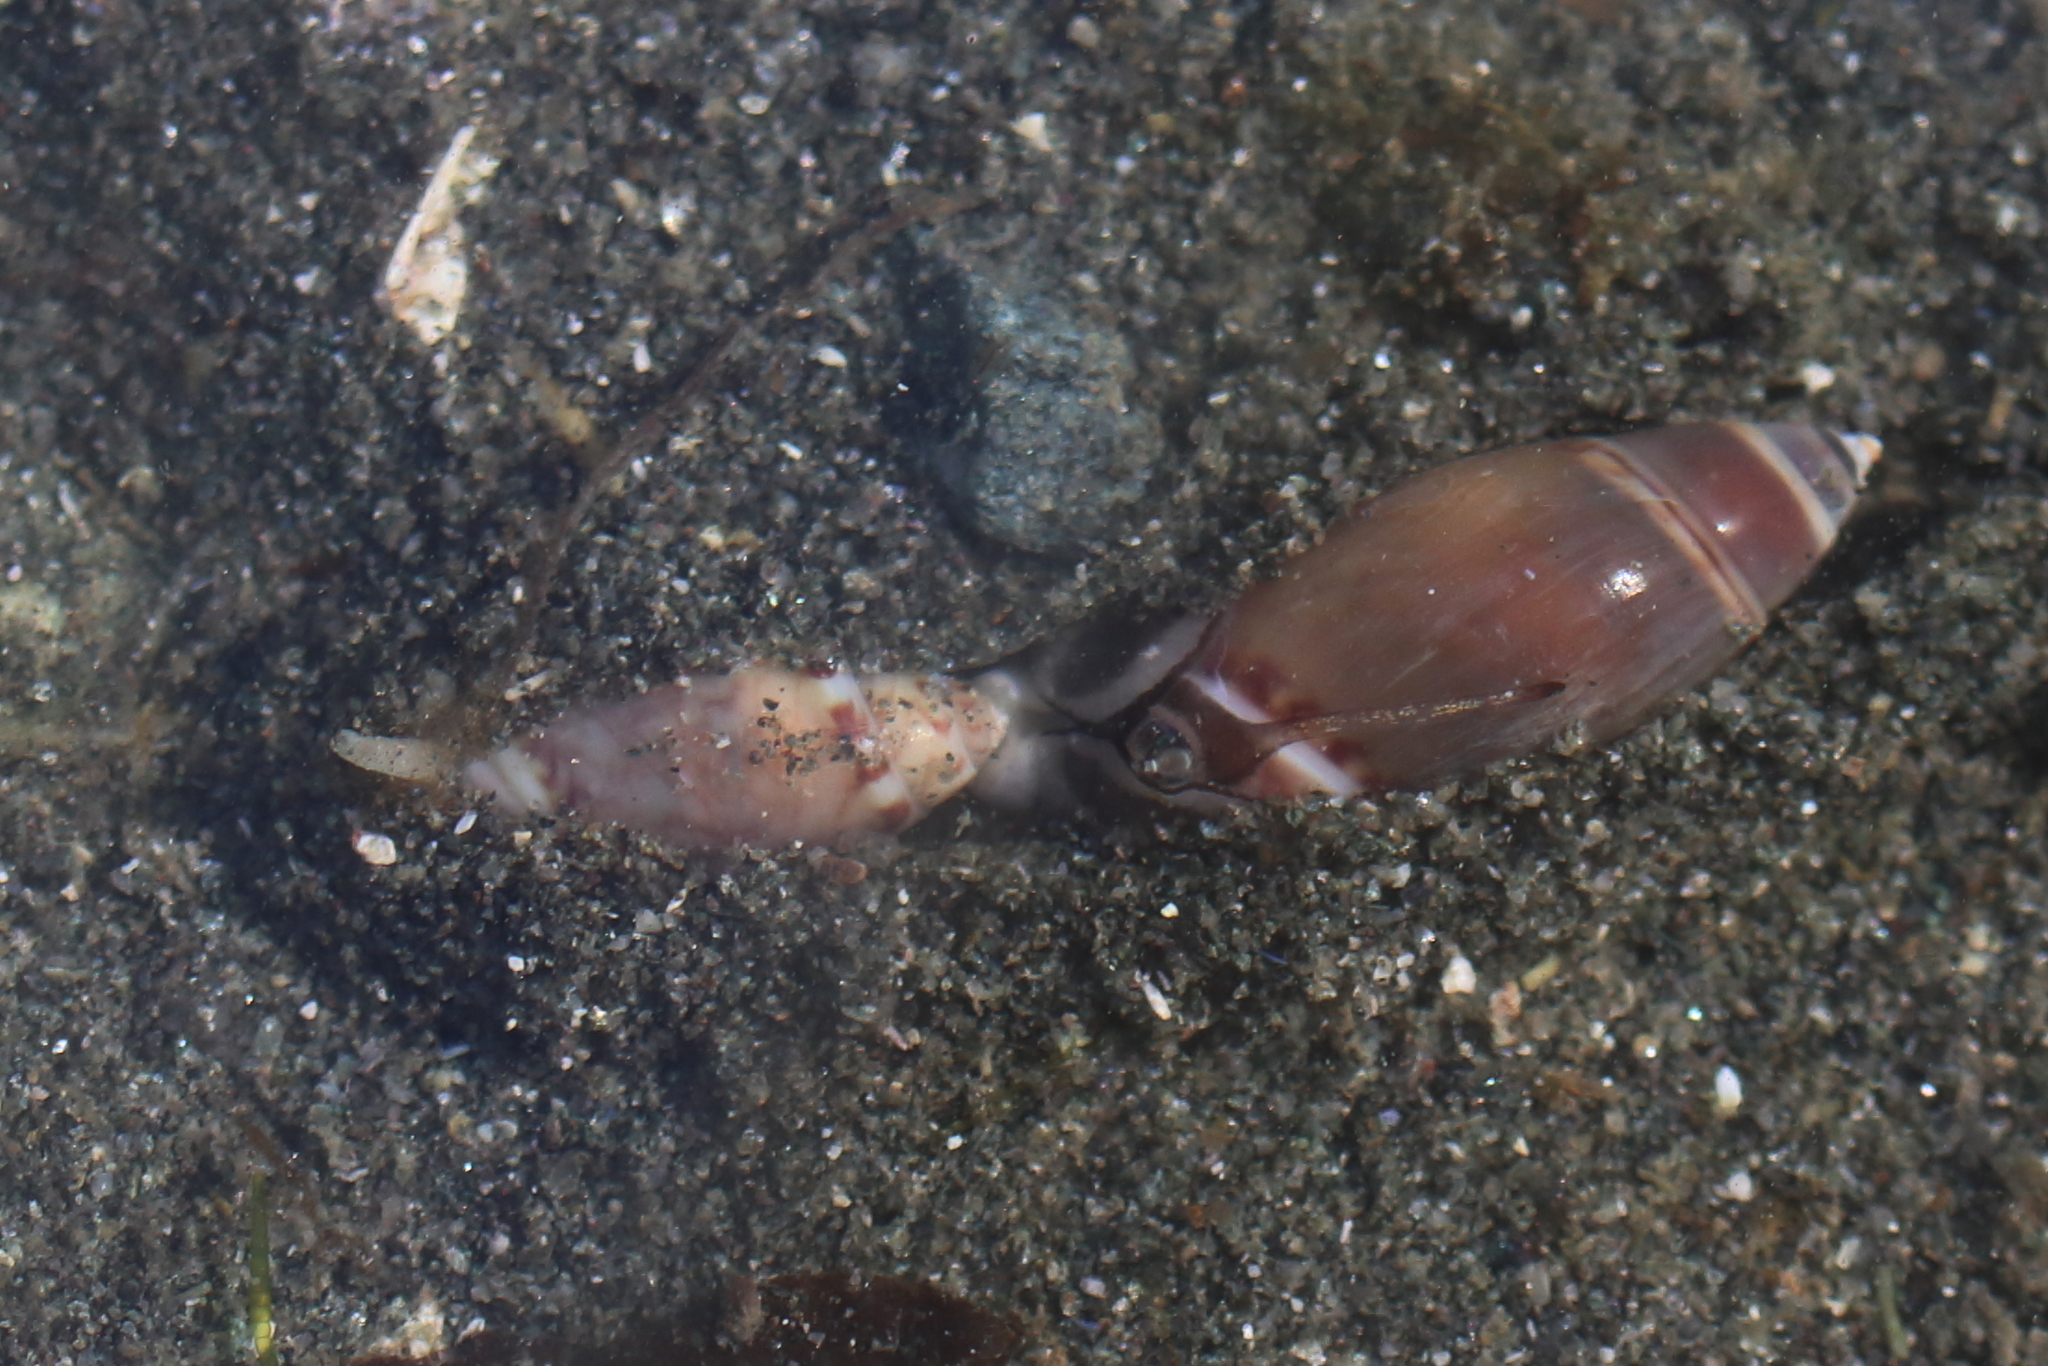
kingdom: Animalia
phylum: Mollusca
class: Gastropoda
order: Neogastropoda
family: Olividae
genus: Callianax
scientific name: Callianax alectona
